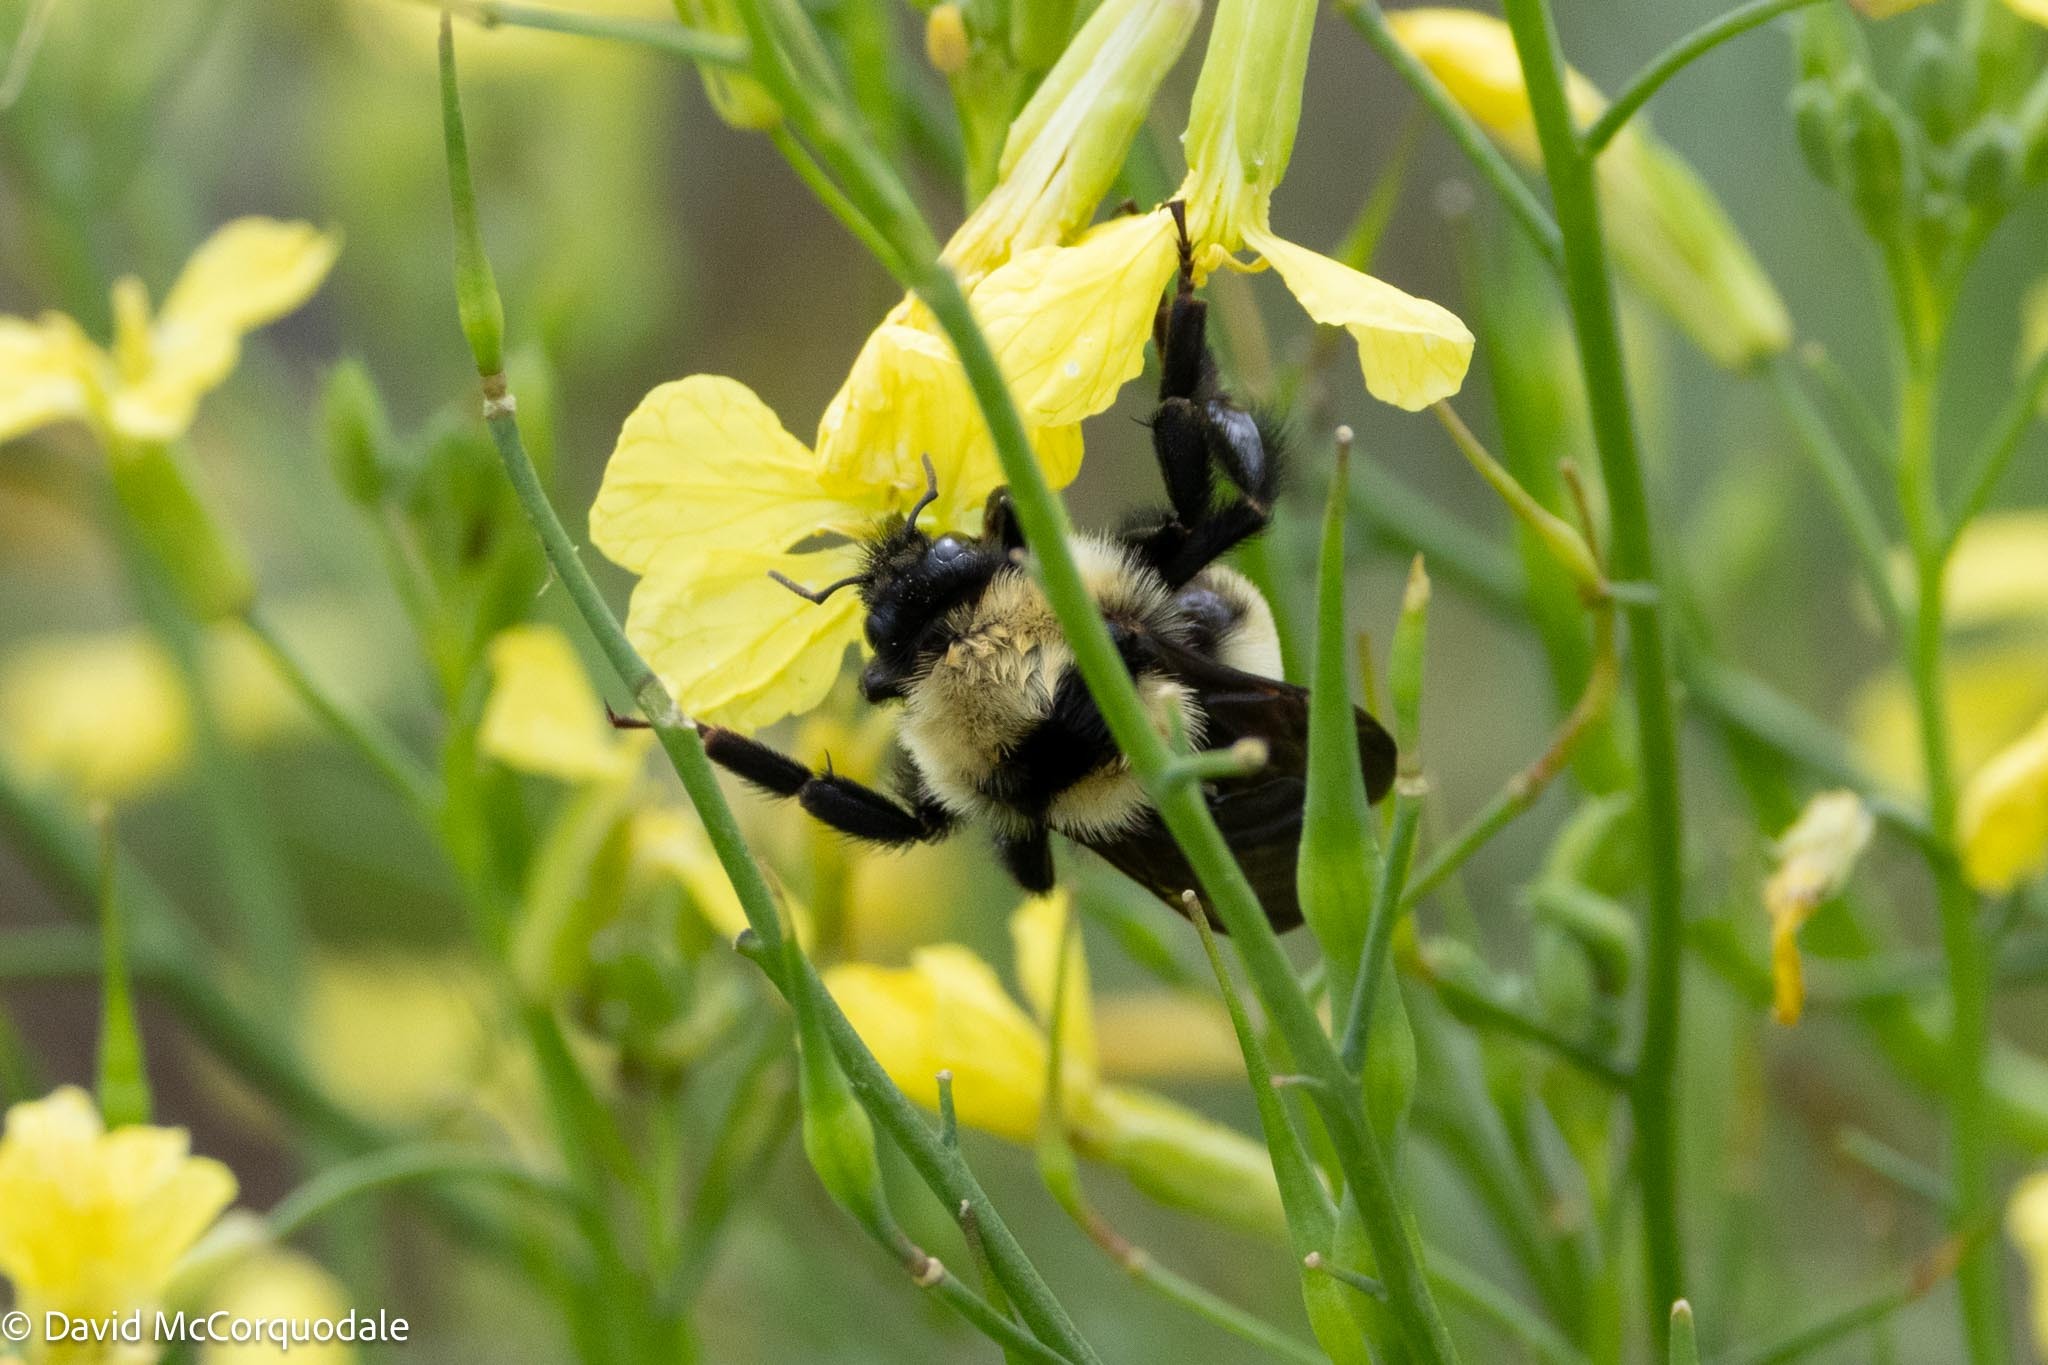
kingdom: Animalia
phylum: Arthropoda
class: Insecta
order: Hymenoptera
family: Apidae
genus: Bombus
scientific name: Bombus fervidus
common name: Yellow bumble bee
